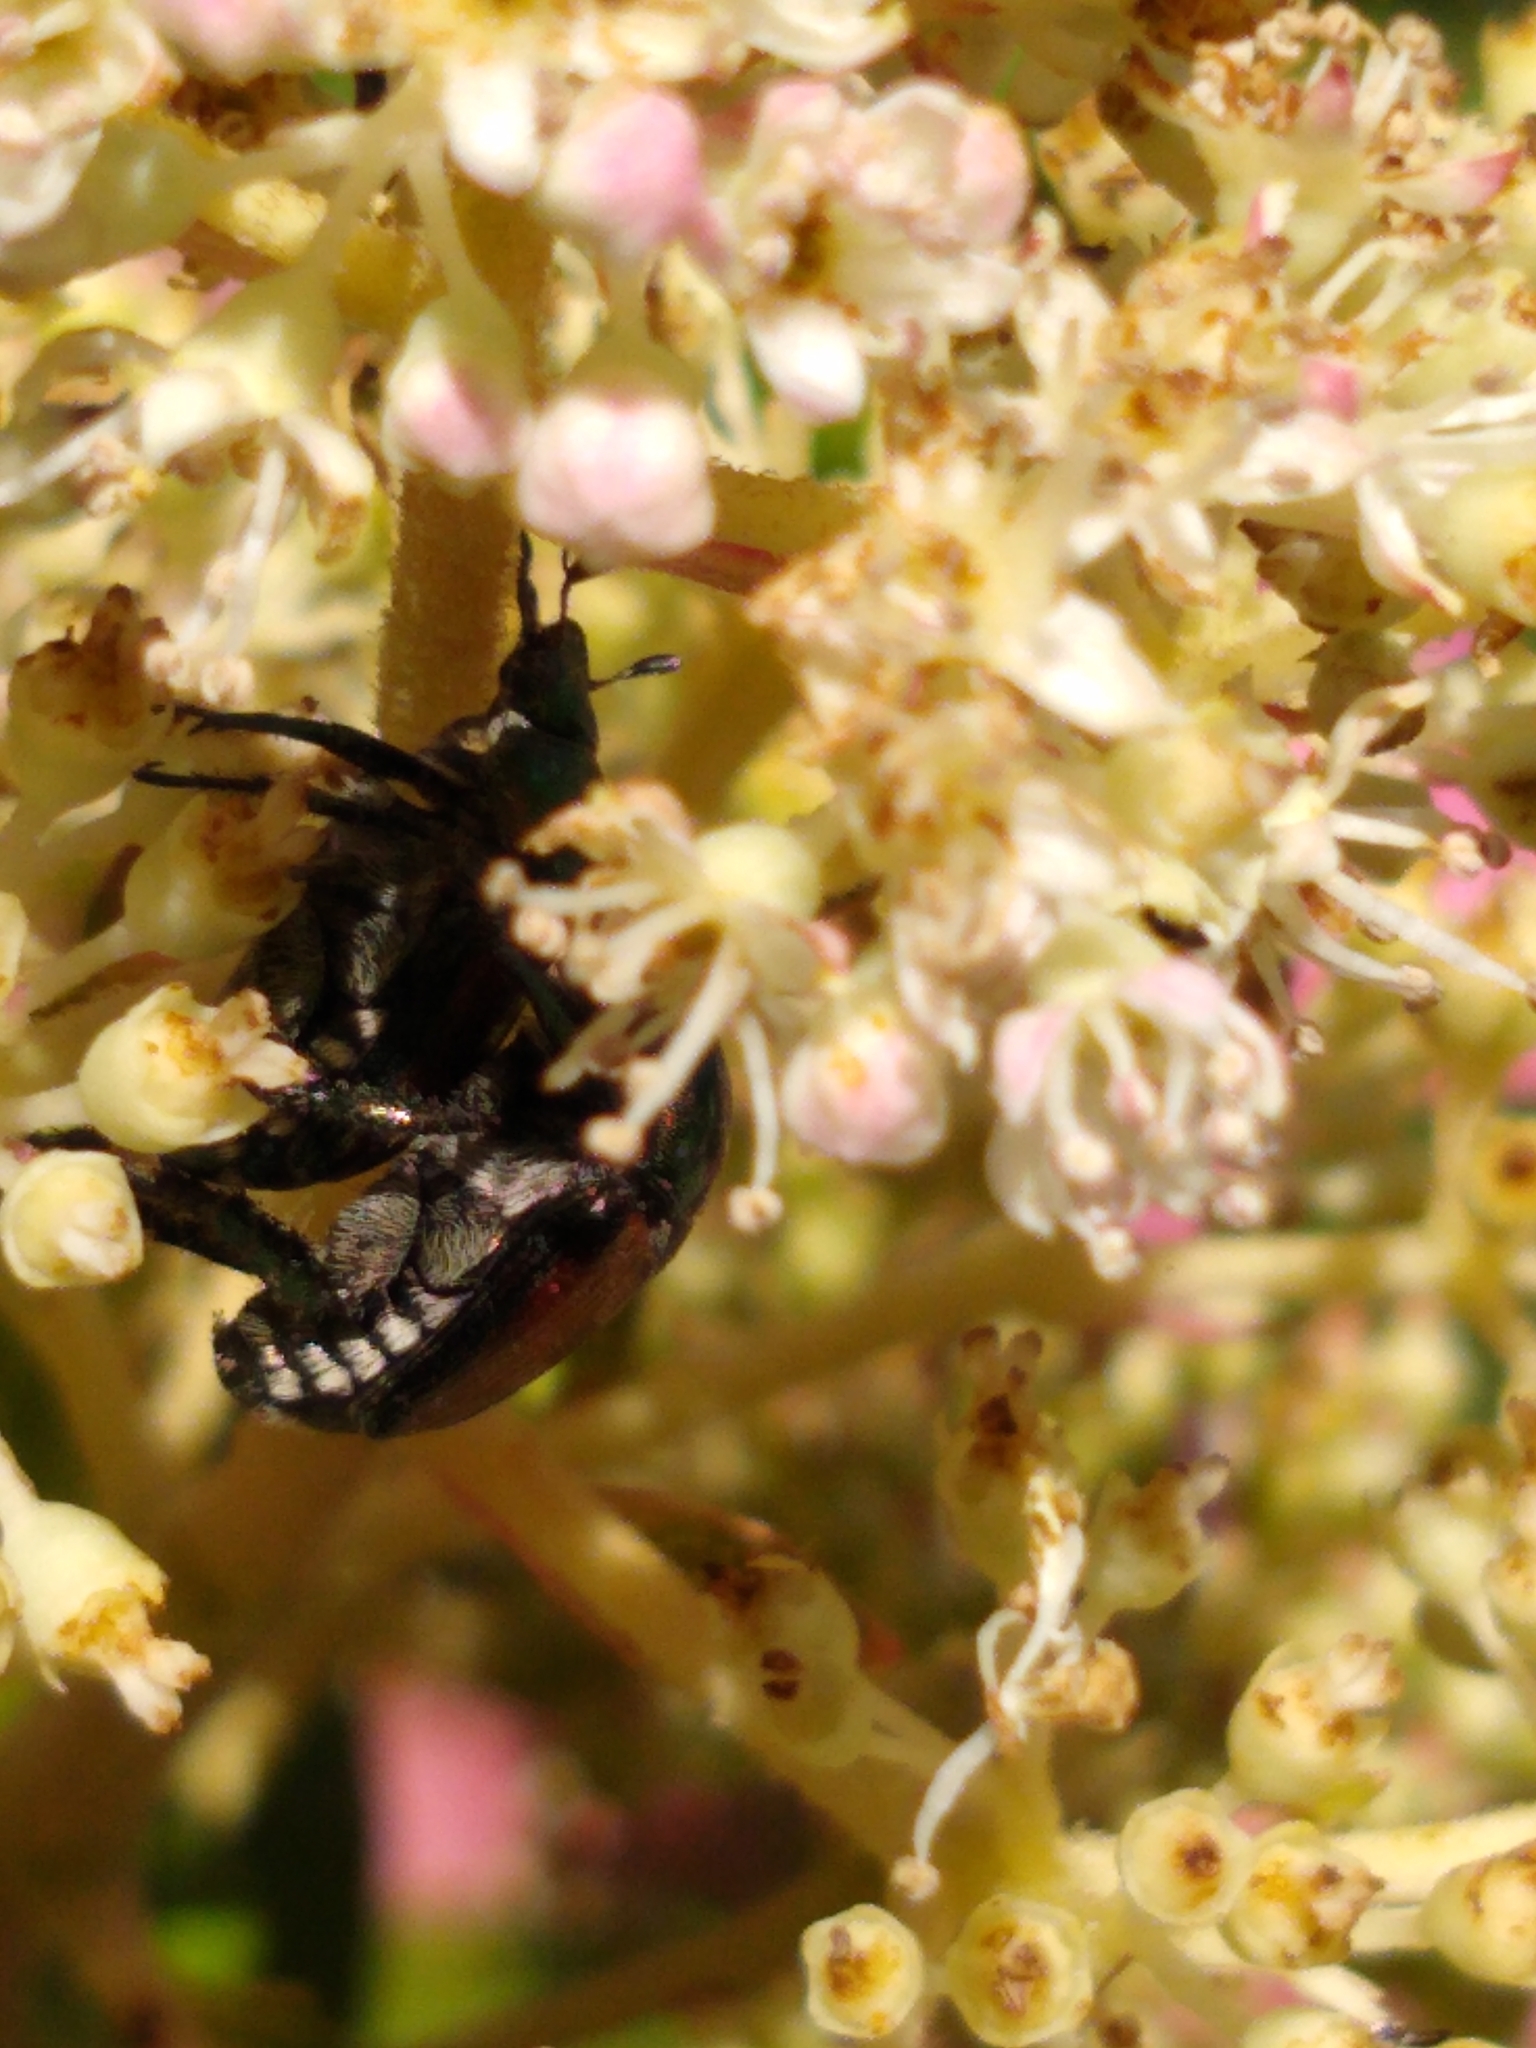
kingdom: Animalia
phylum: Arthropoda
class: Insecta
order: Coleoptera
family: Scarabaeidae
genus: Popillia
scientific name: Popillia japonica
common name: Japanese beetle
